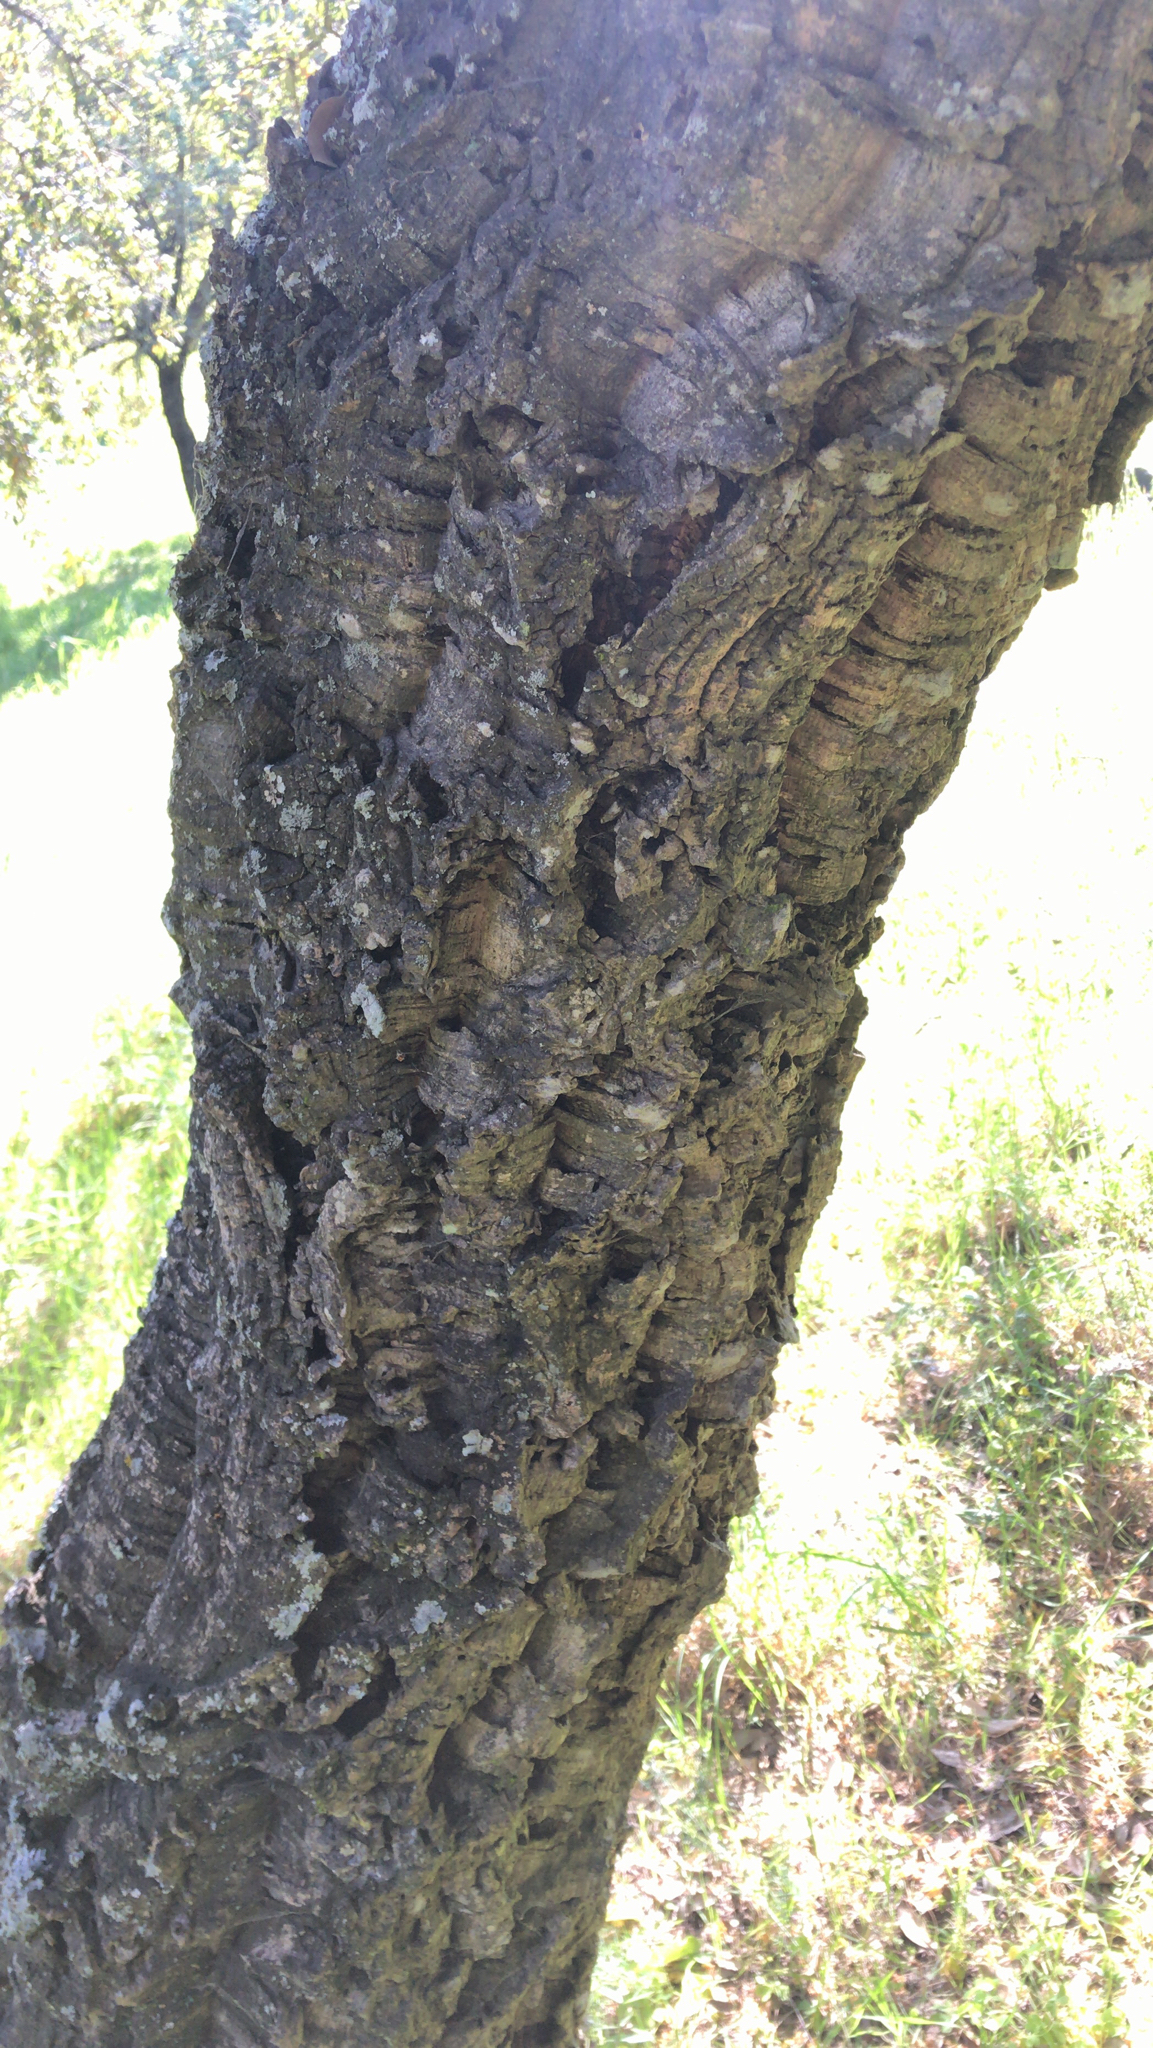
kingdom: Plantae
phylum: Tracheophyta
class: Magnoliopsida
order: Fagales
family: Fagaceae
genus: Quercus
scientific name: Quercus suber
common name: Cork oak
